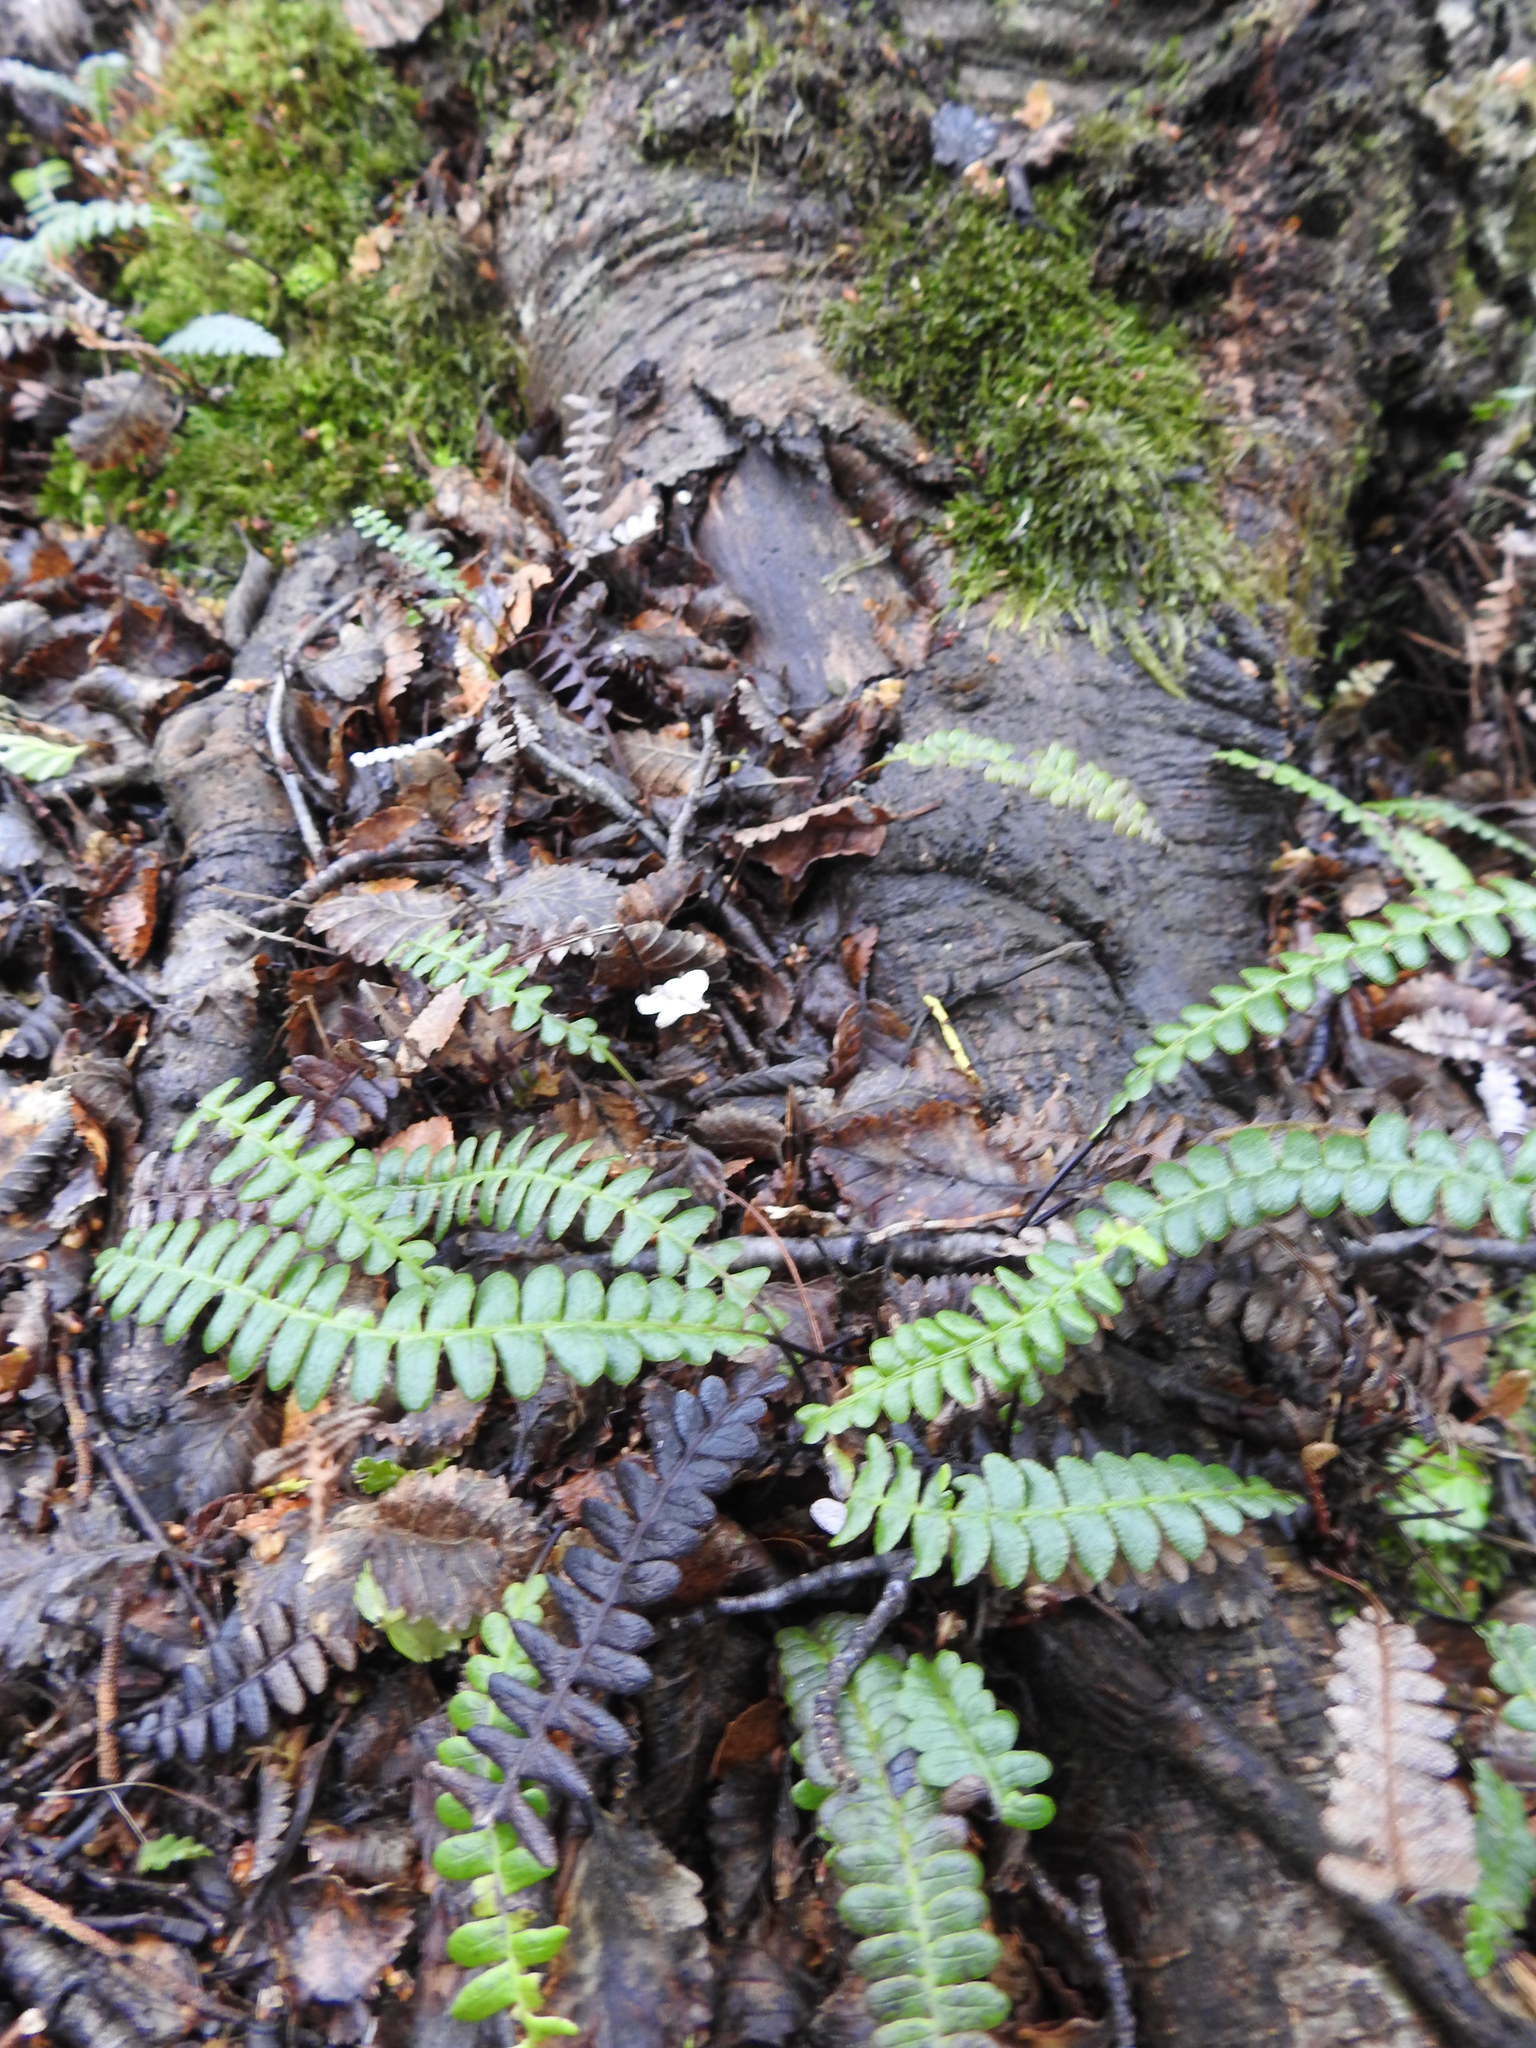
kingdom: Plantae
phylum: Tracheophyta
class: Polypodiopsida
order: Polypodiales
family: Blechnaceae
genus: Austroblechnum
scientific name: Austroblechnum penna-marina
